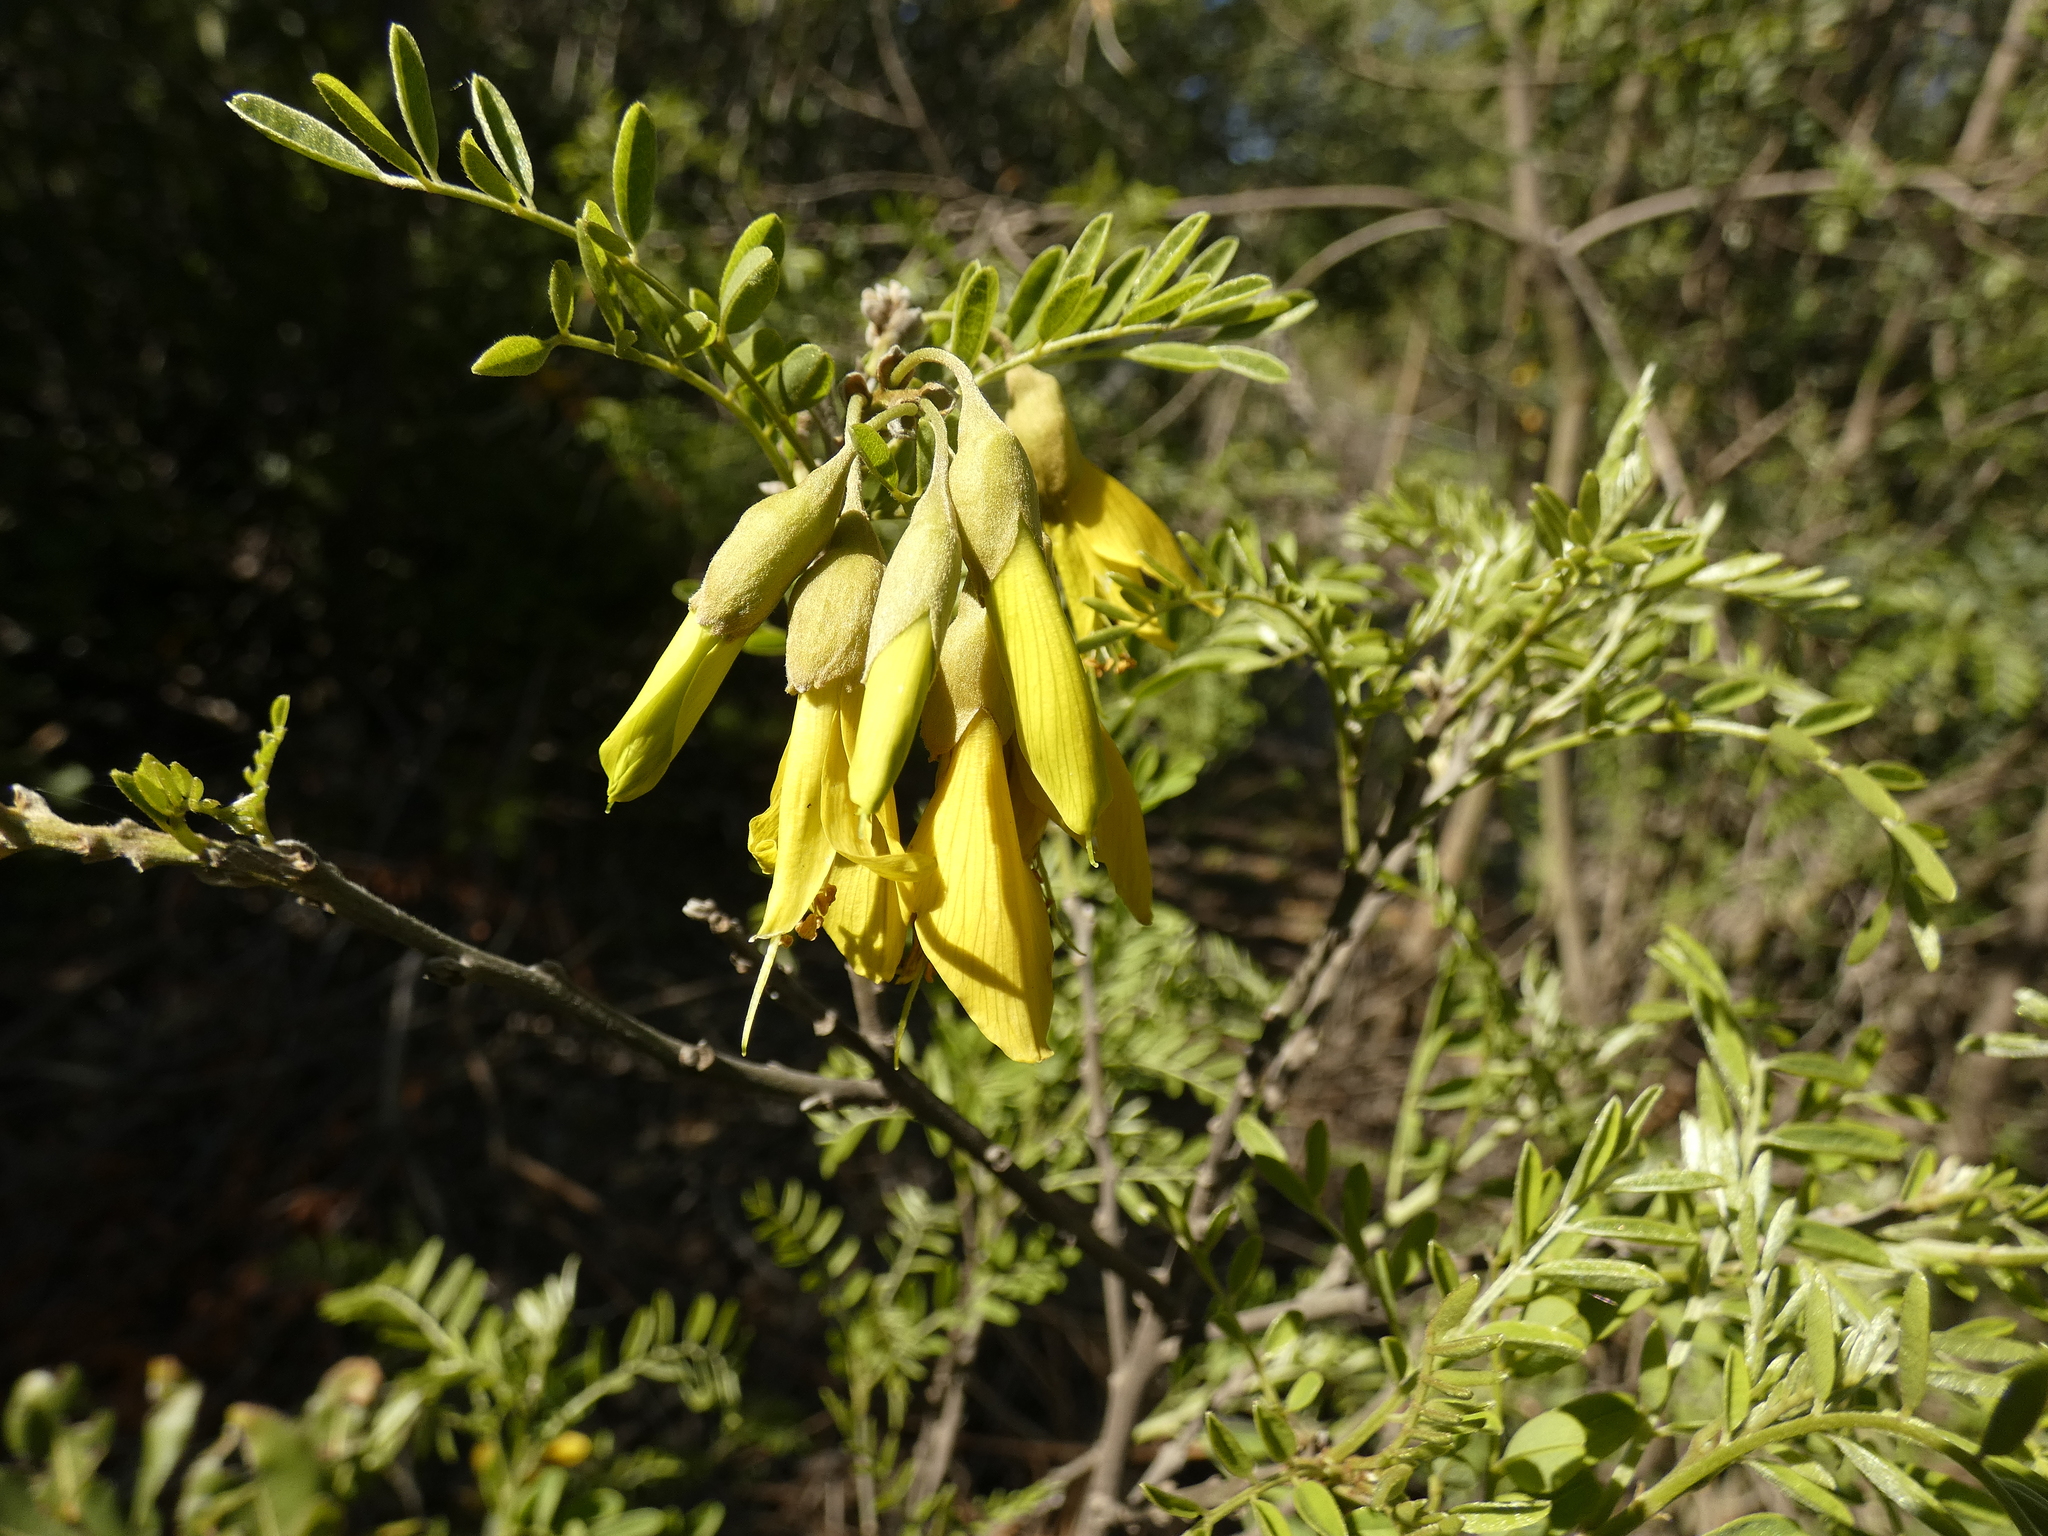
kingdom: Plantae
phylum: Tracheophyta
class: Magnoliopsida
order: Fabales
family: Fabaceae
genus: Sophora
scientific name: Sophora macrocarpa
